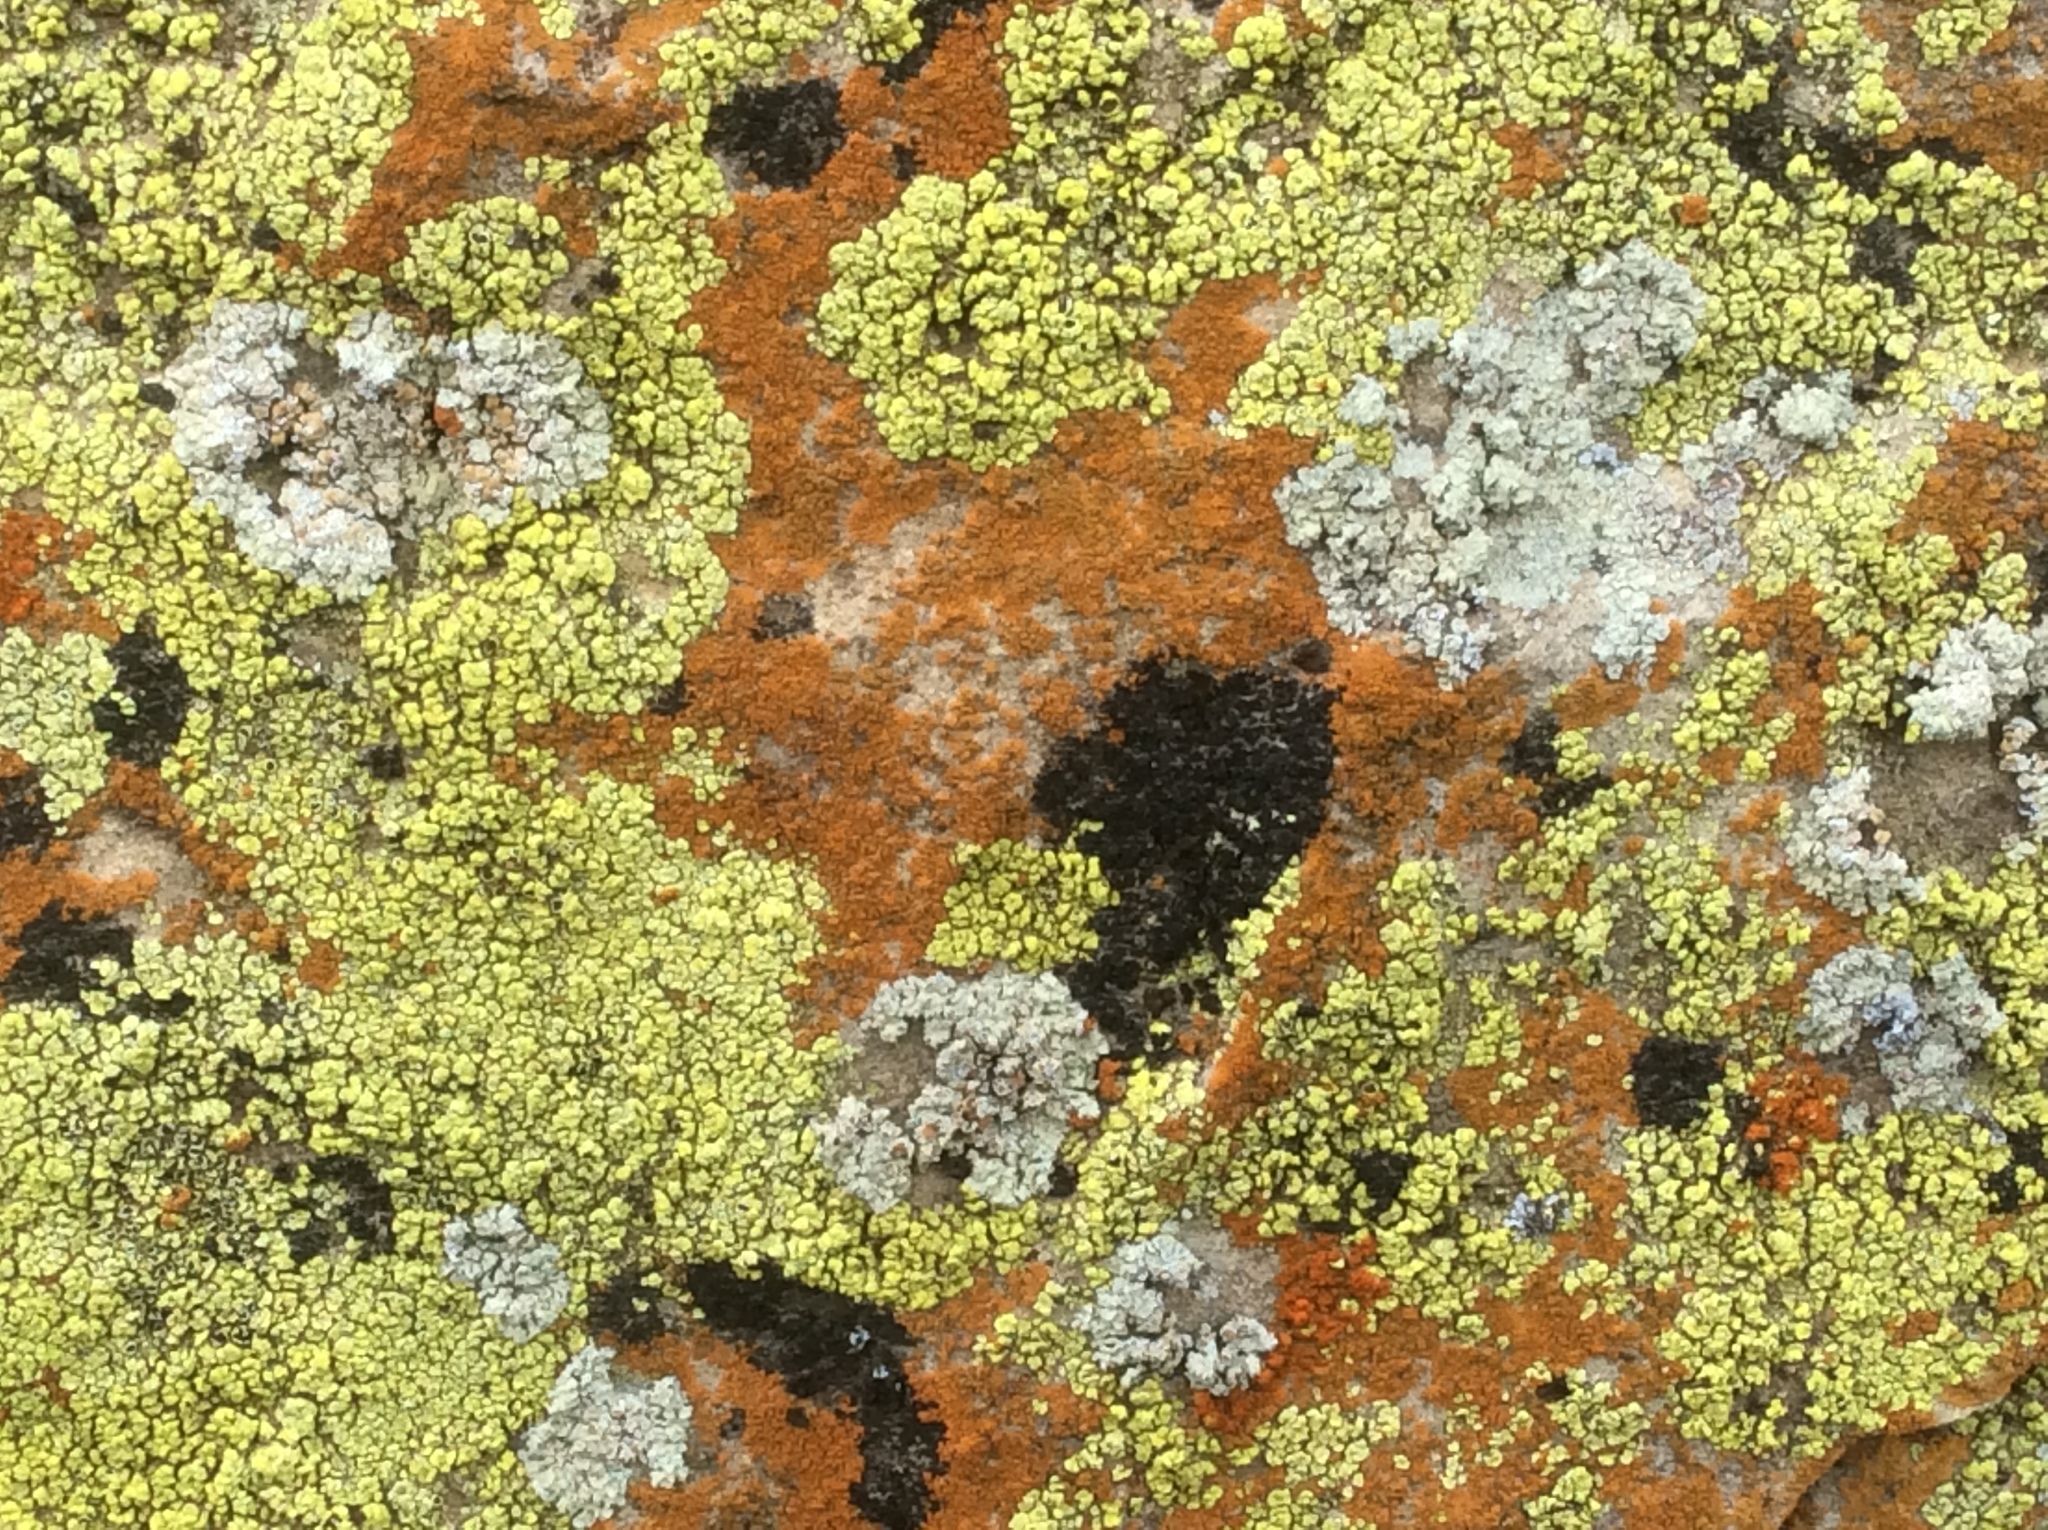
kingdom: Fungi
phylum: Ascomycota
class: Lecanoromycetes
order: Acarosporales
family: Acarosporaceae
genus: Acarospora
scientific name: Acarospora socialis
